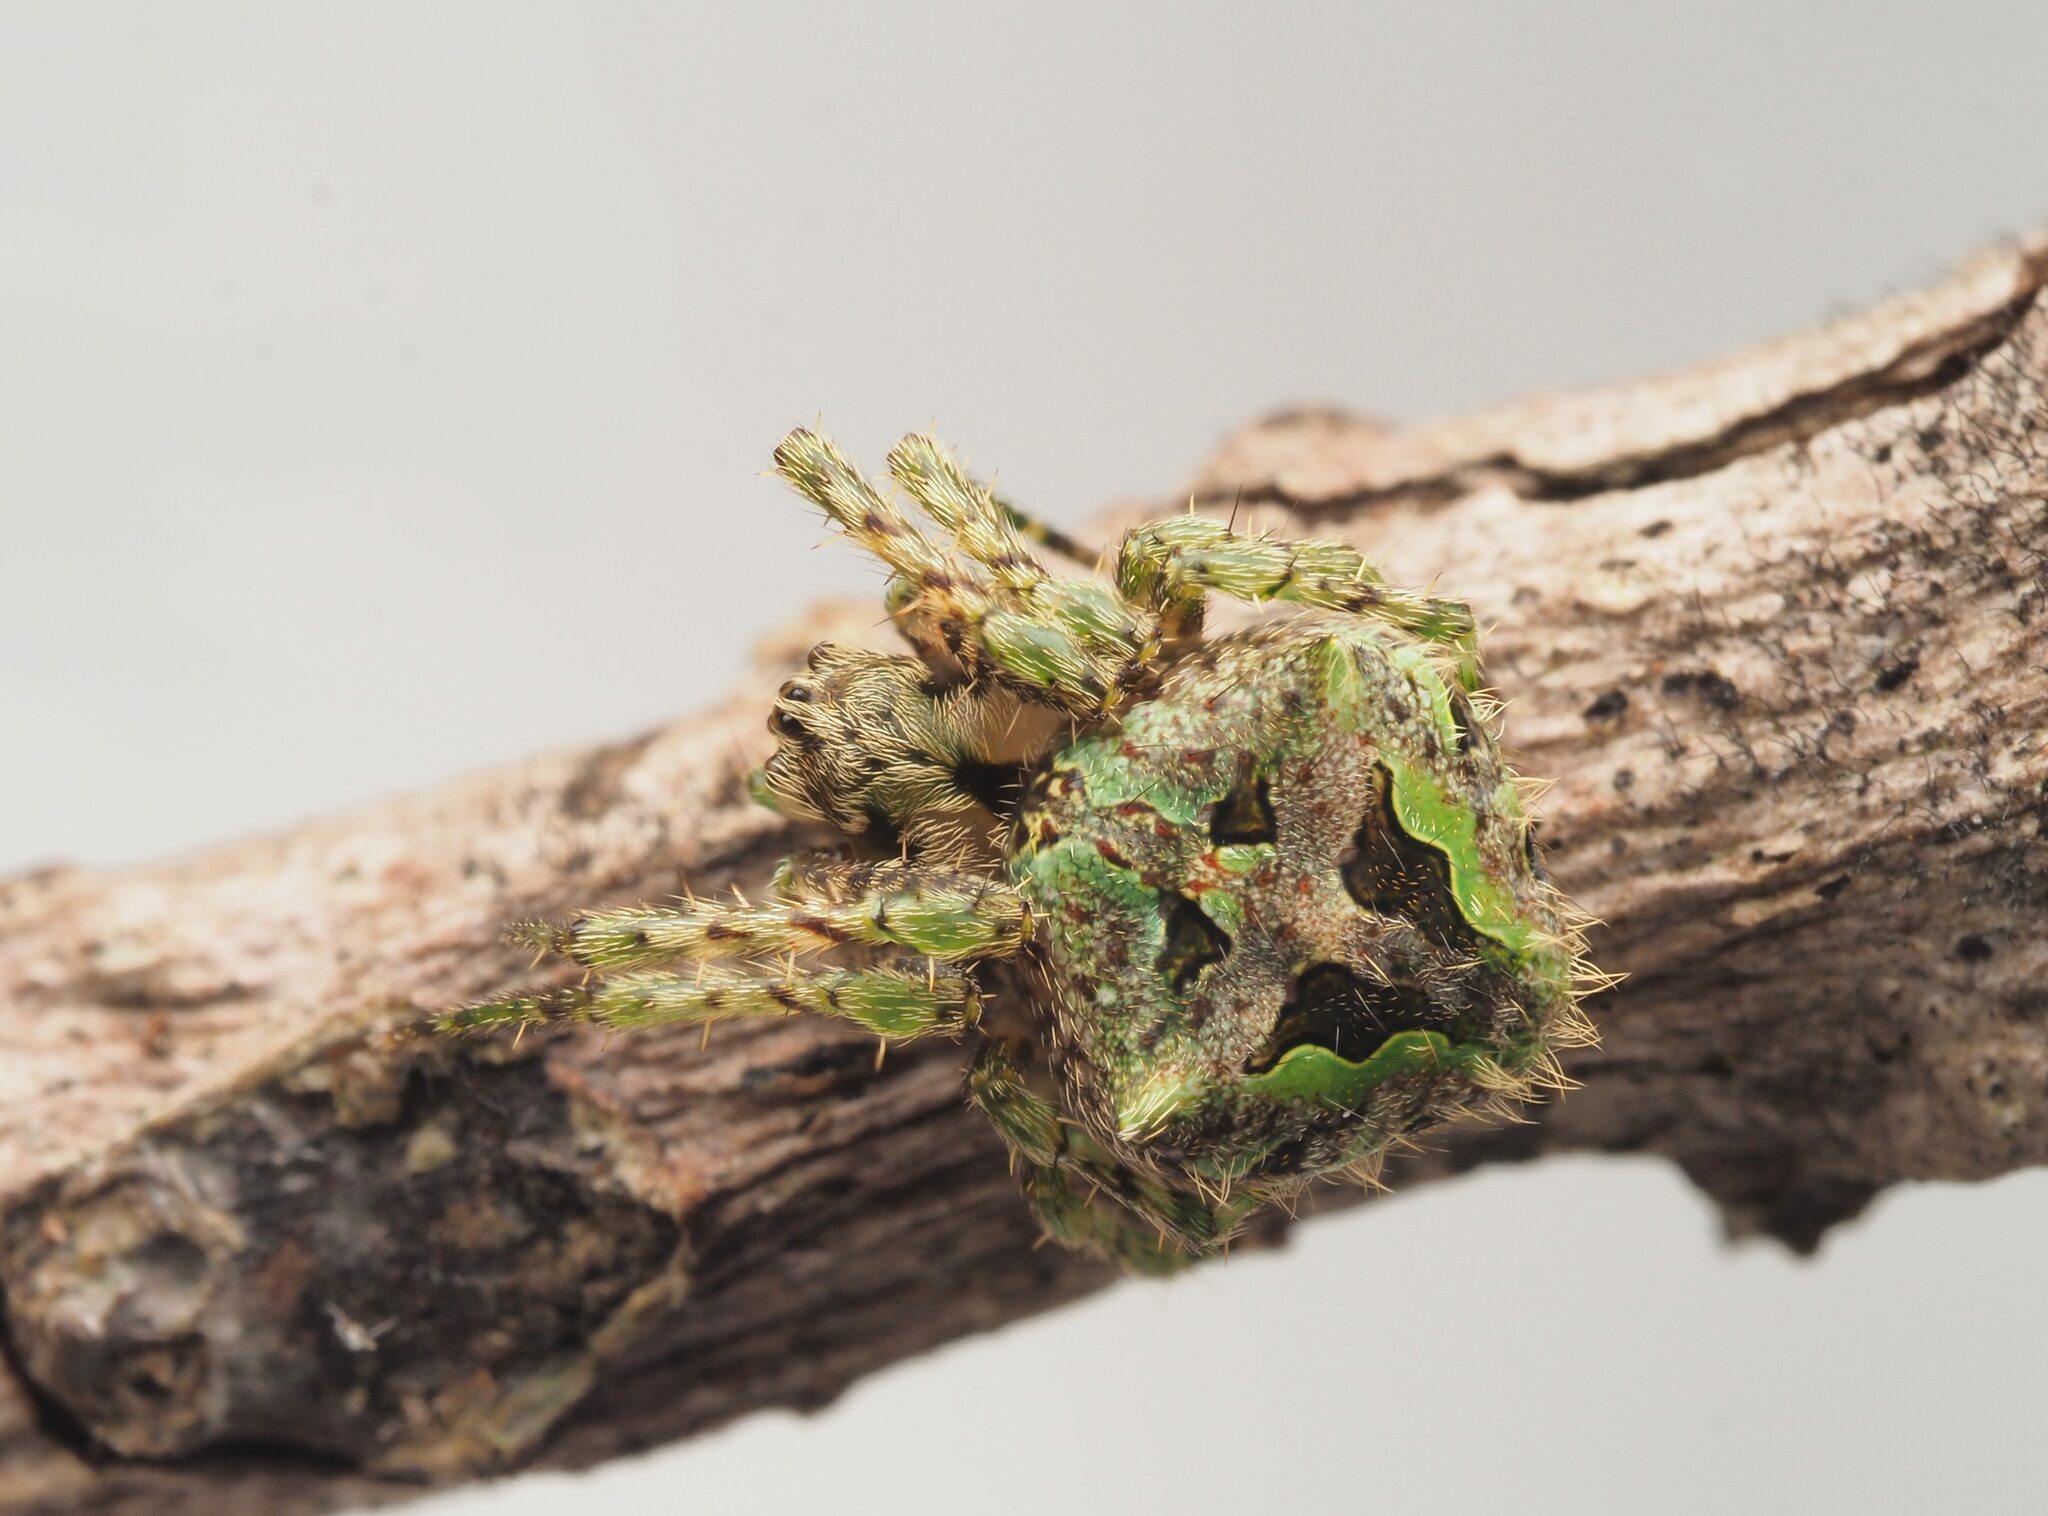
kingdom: Animalia
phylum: Arthropoda
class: Arachnida
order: Araneae
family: Araneidae
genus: Telaprocera
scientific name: Telaprocera joanae
